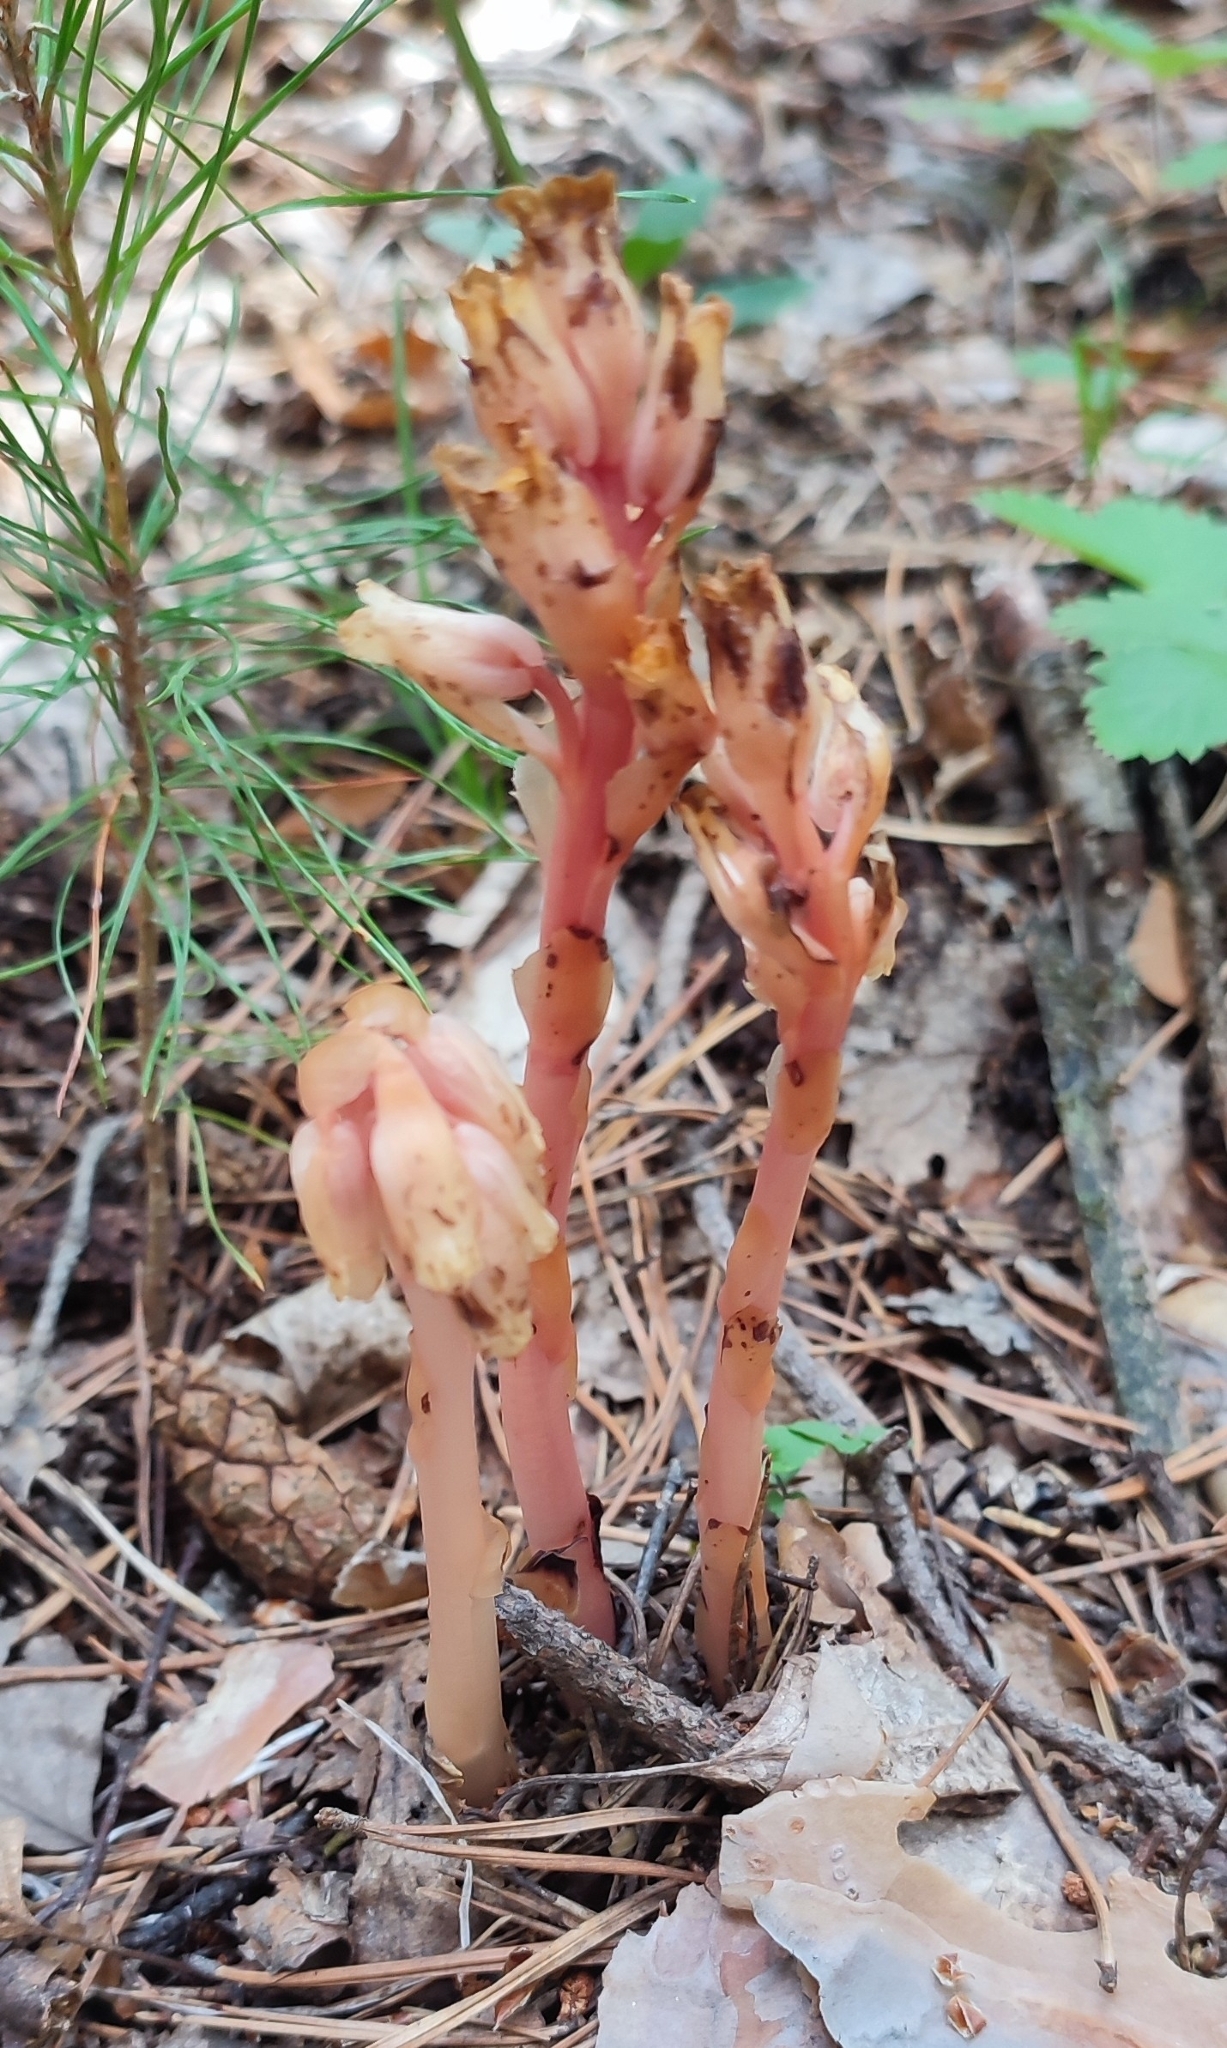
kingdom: Plantae
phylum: Tracheophyta
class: Magnoliopsida
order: Ericales
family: Ericaceae
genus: Hypopitys
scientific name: Hypopitys monotropa
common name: Yellow bird's-nest
